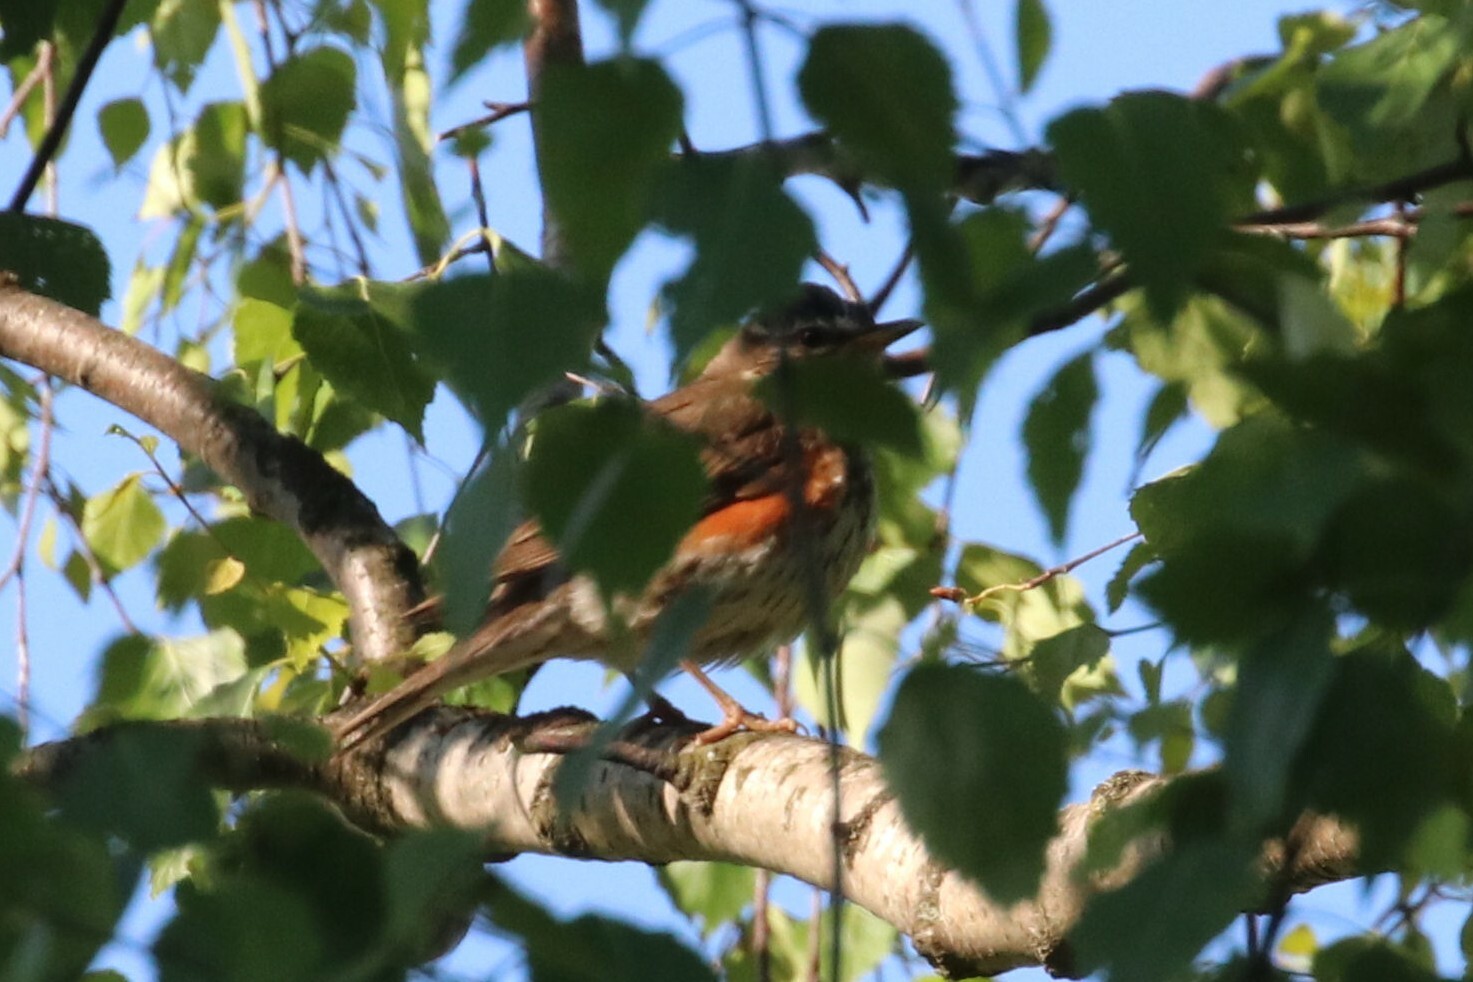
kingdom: Animalia
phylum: Chordata
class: Aves
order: Passeriformes
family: Turdidae
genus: Turdus
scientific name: Turdus iliacus
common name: Redwing
